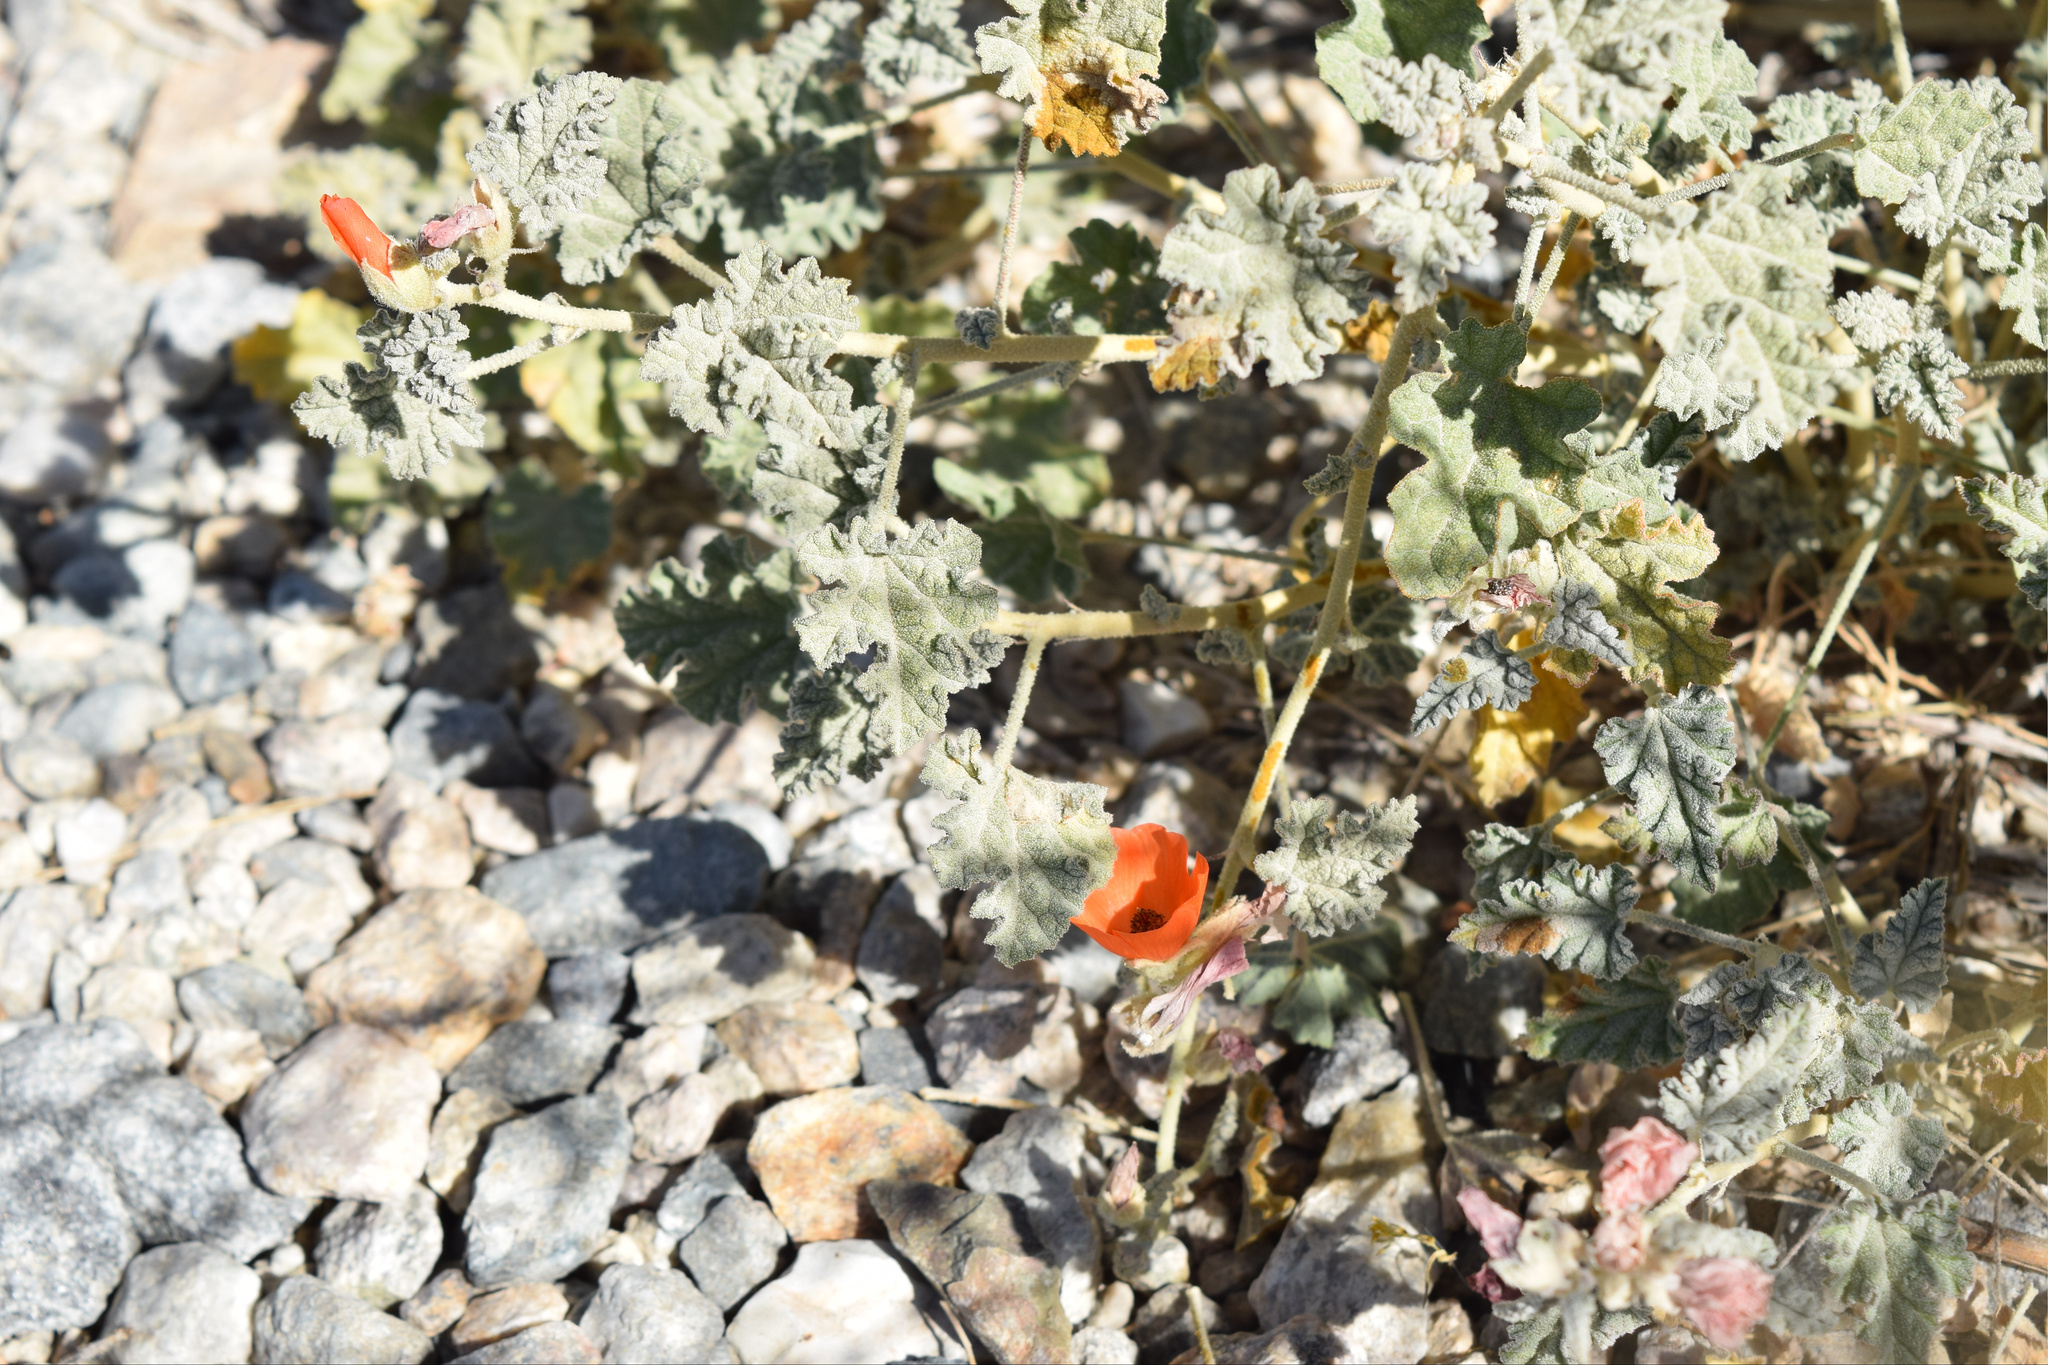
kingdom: Plantae
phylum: Tracheophyta
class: Magnoliopsida
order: Malvales
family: Malvaceae
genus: Sphaeralcea
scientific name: Sphaeralcea ambigua
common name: Apricot globe-mallow
